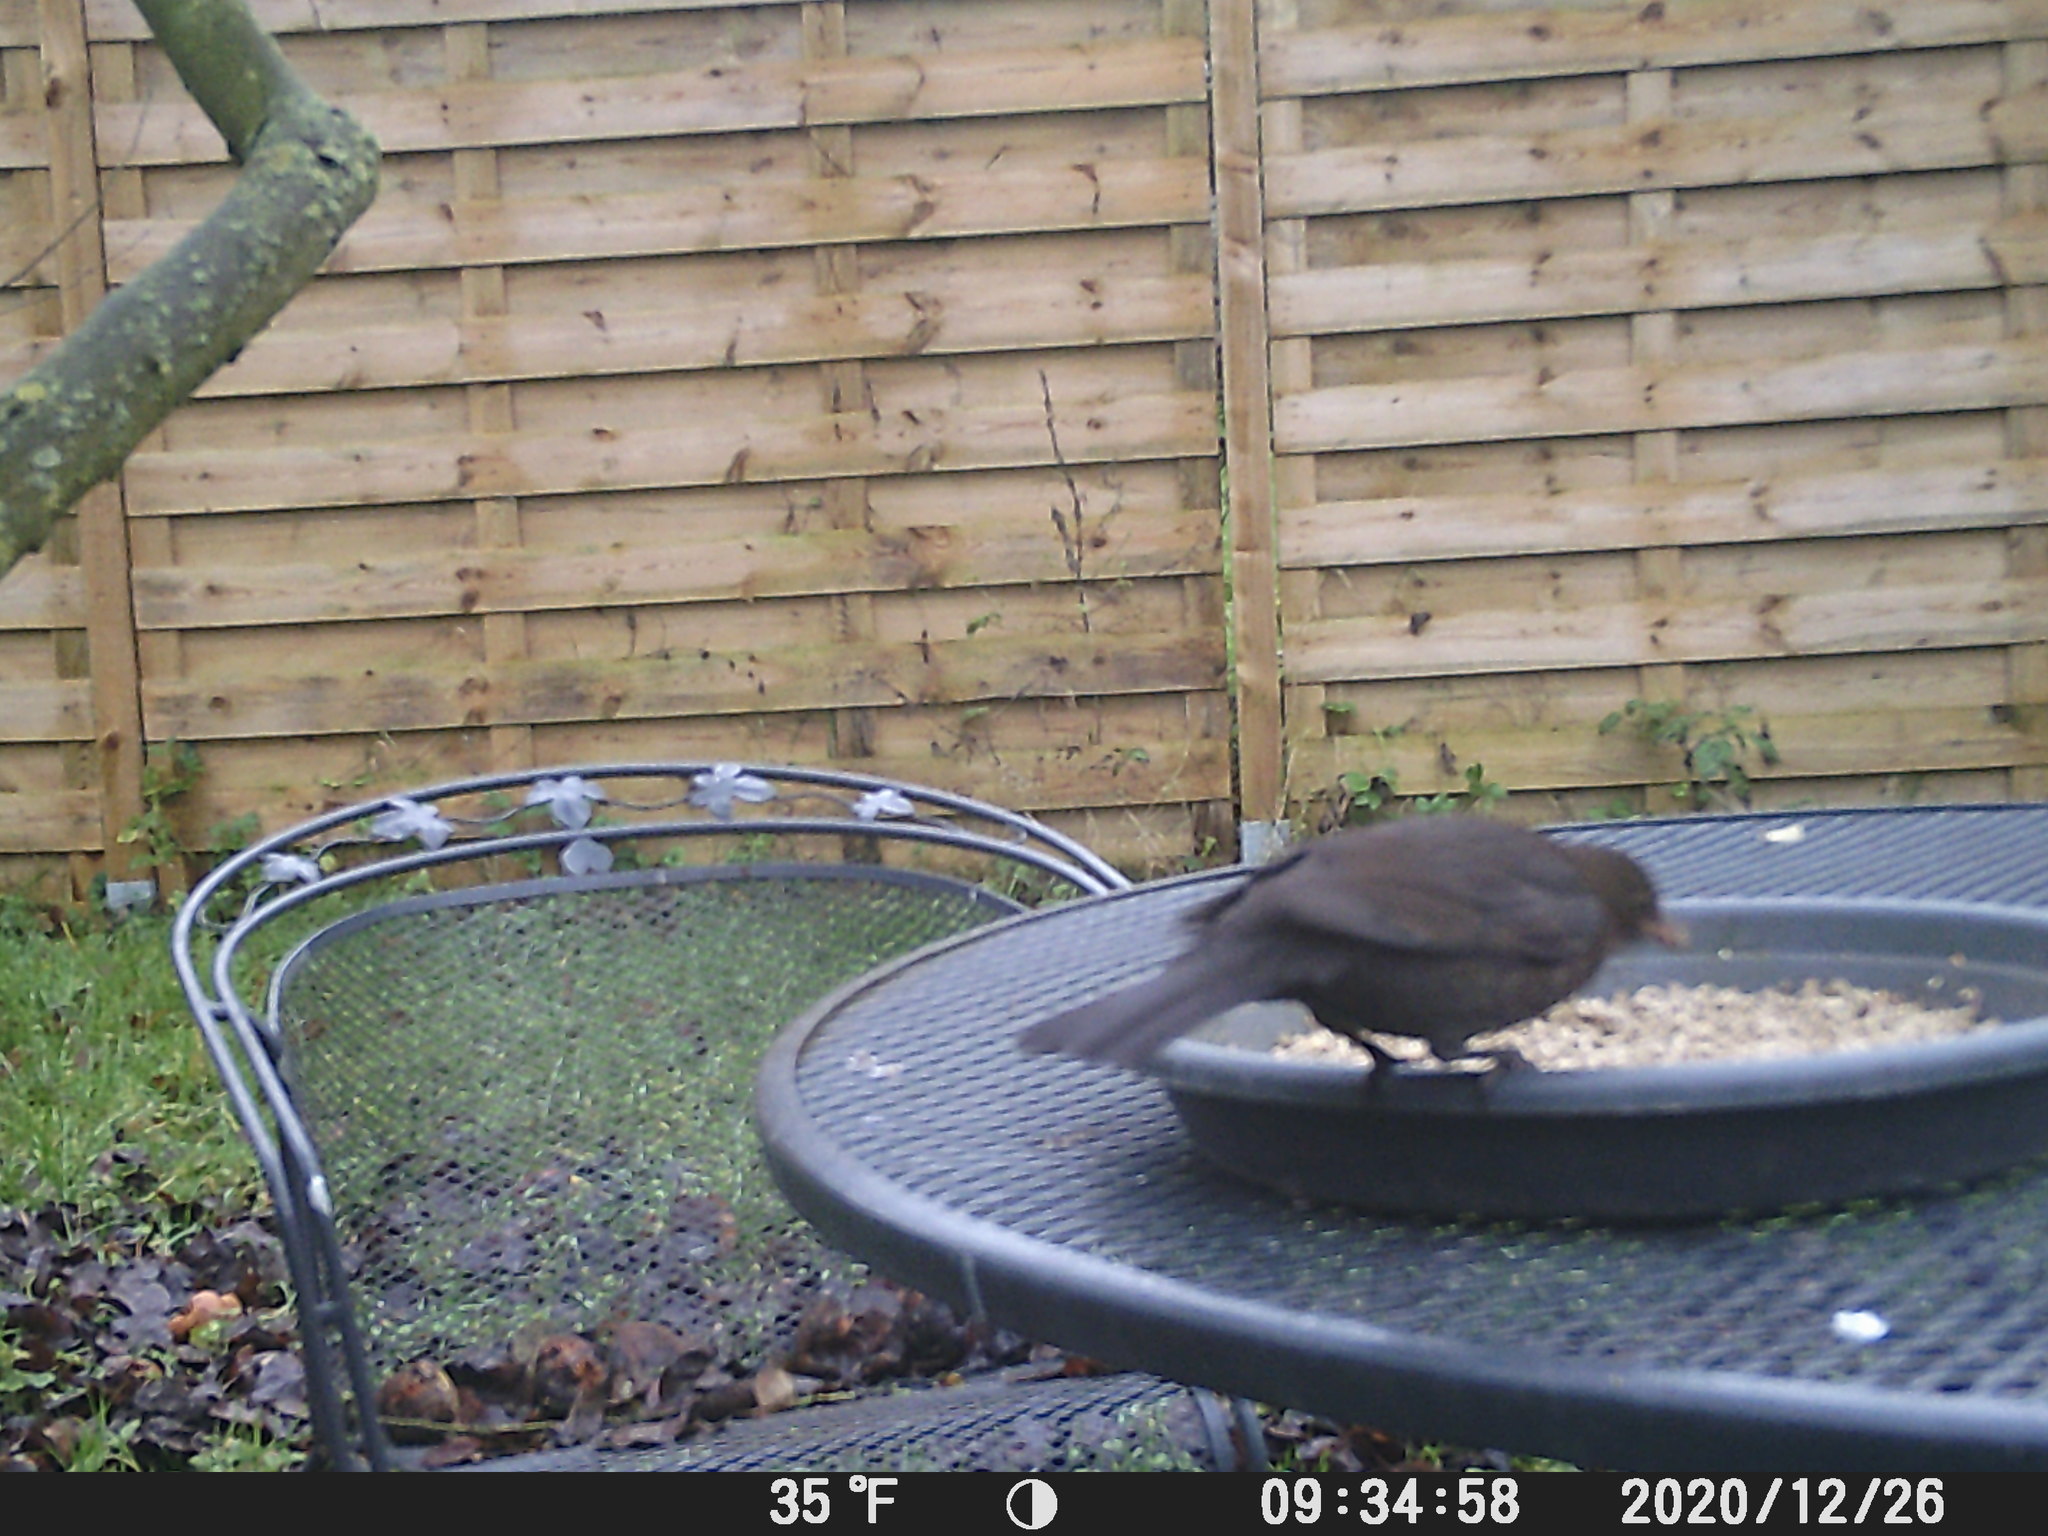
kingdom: Animalia
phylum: Chordata
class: Aves
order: Passeriformes
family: Turdidae
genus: Turdus
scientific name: Turdus merula
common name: Common blackbird
